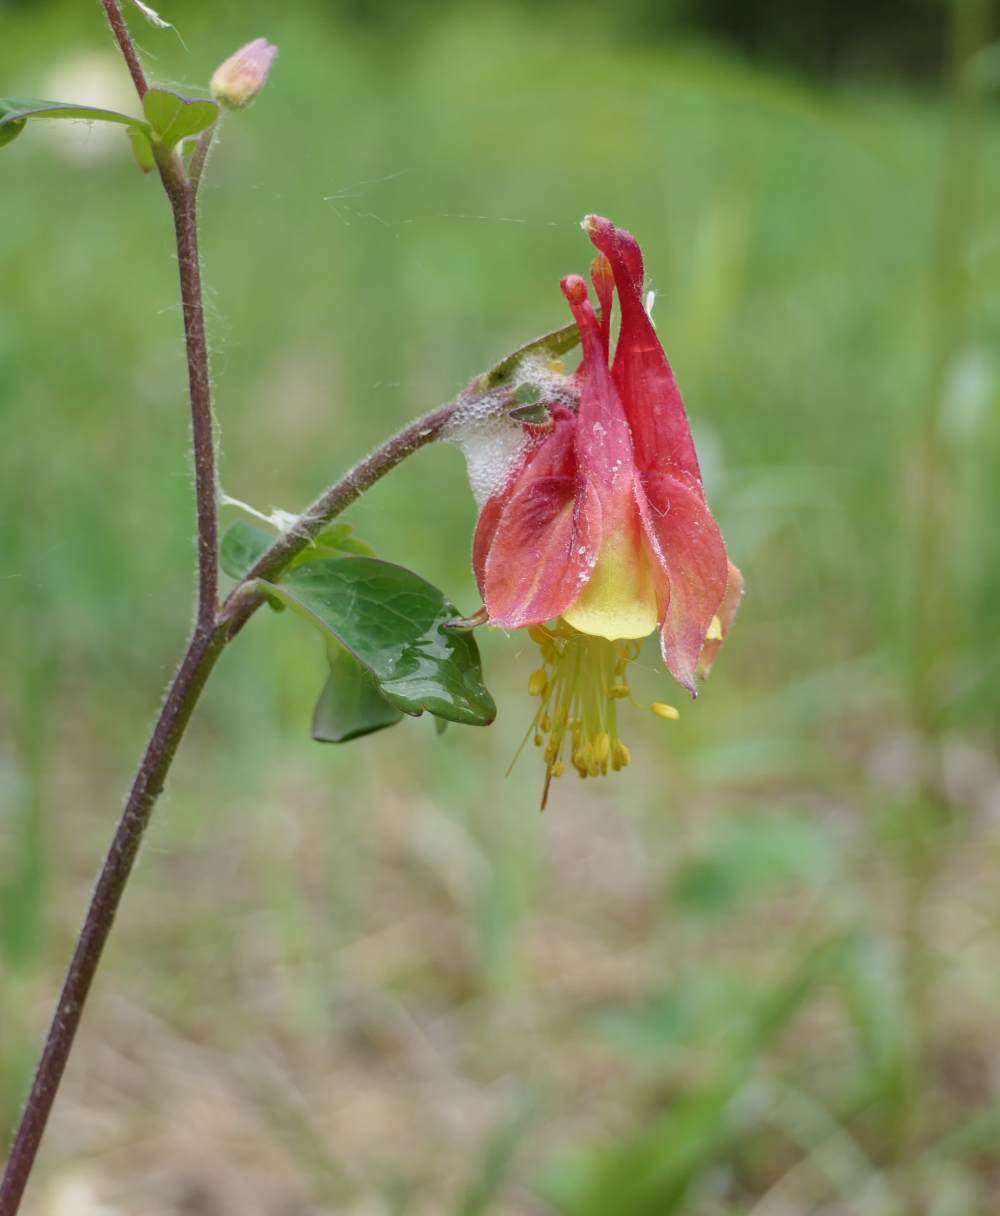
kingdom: Plantae
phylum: Tracheophyta
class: Magnoliopsida
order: Ranunculales
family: Ranunculaceae
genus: Aquilegia
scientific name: Aquilegia canadensis
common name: American columbine
